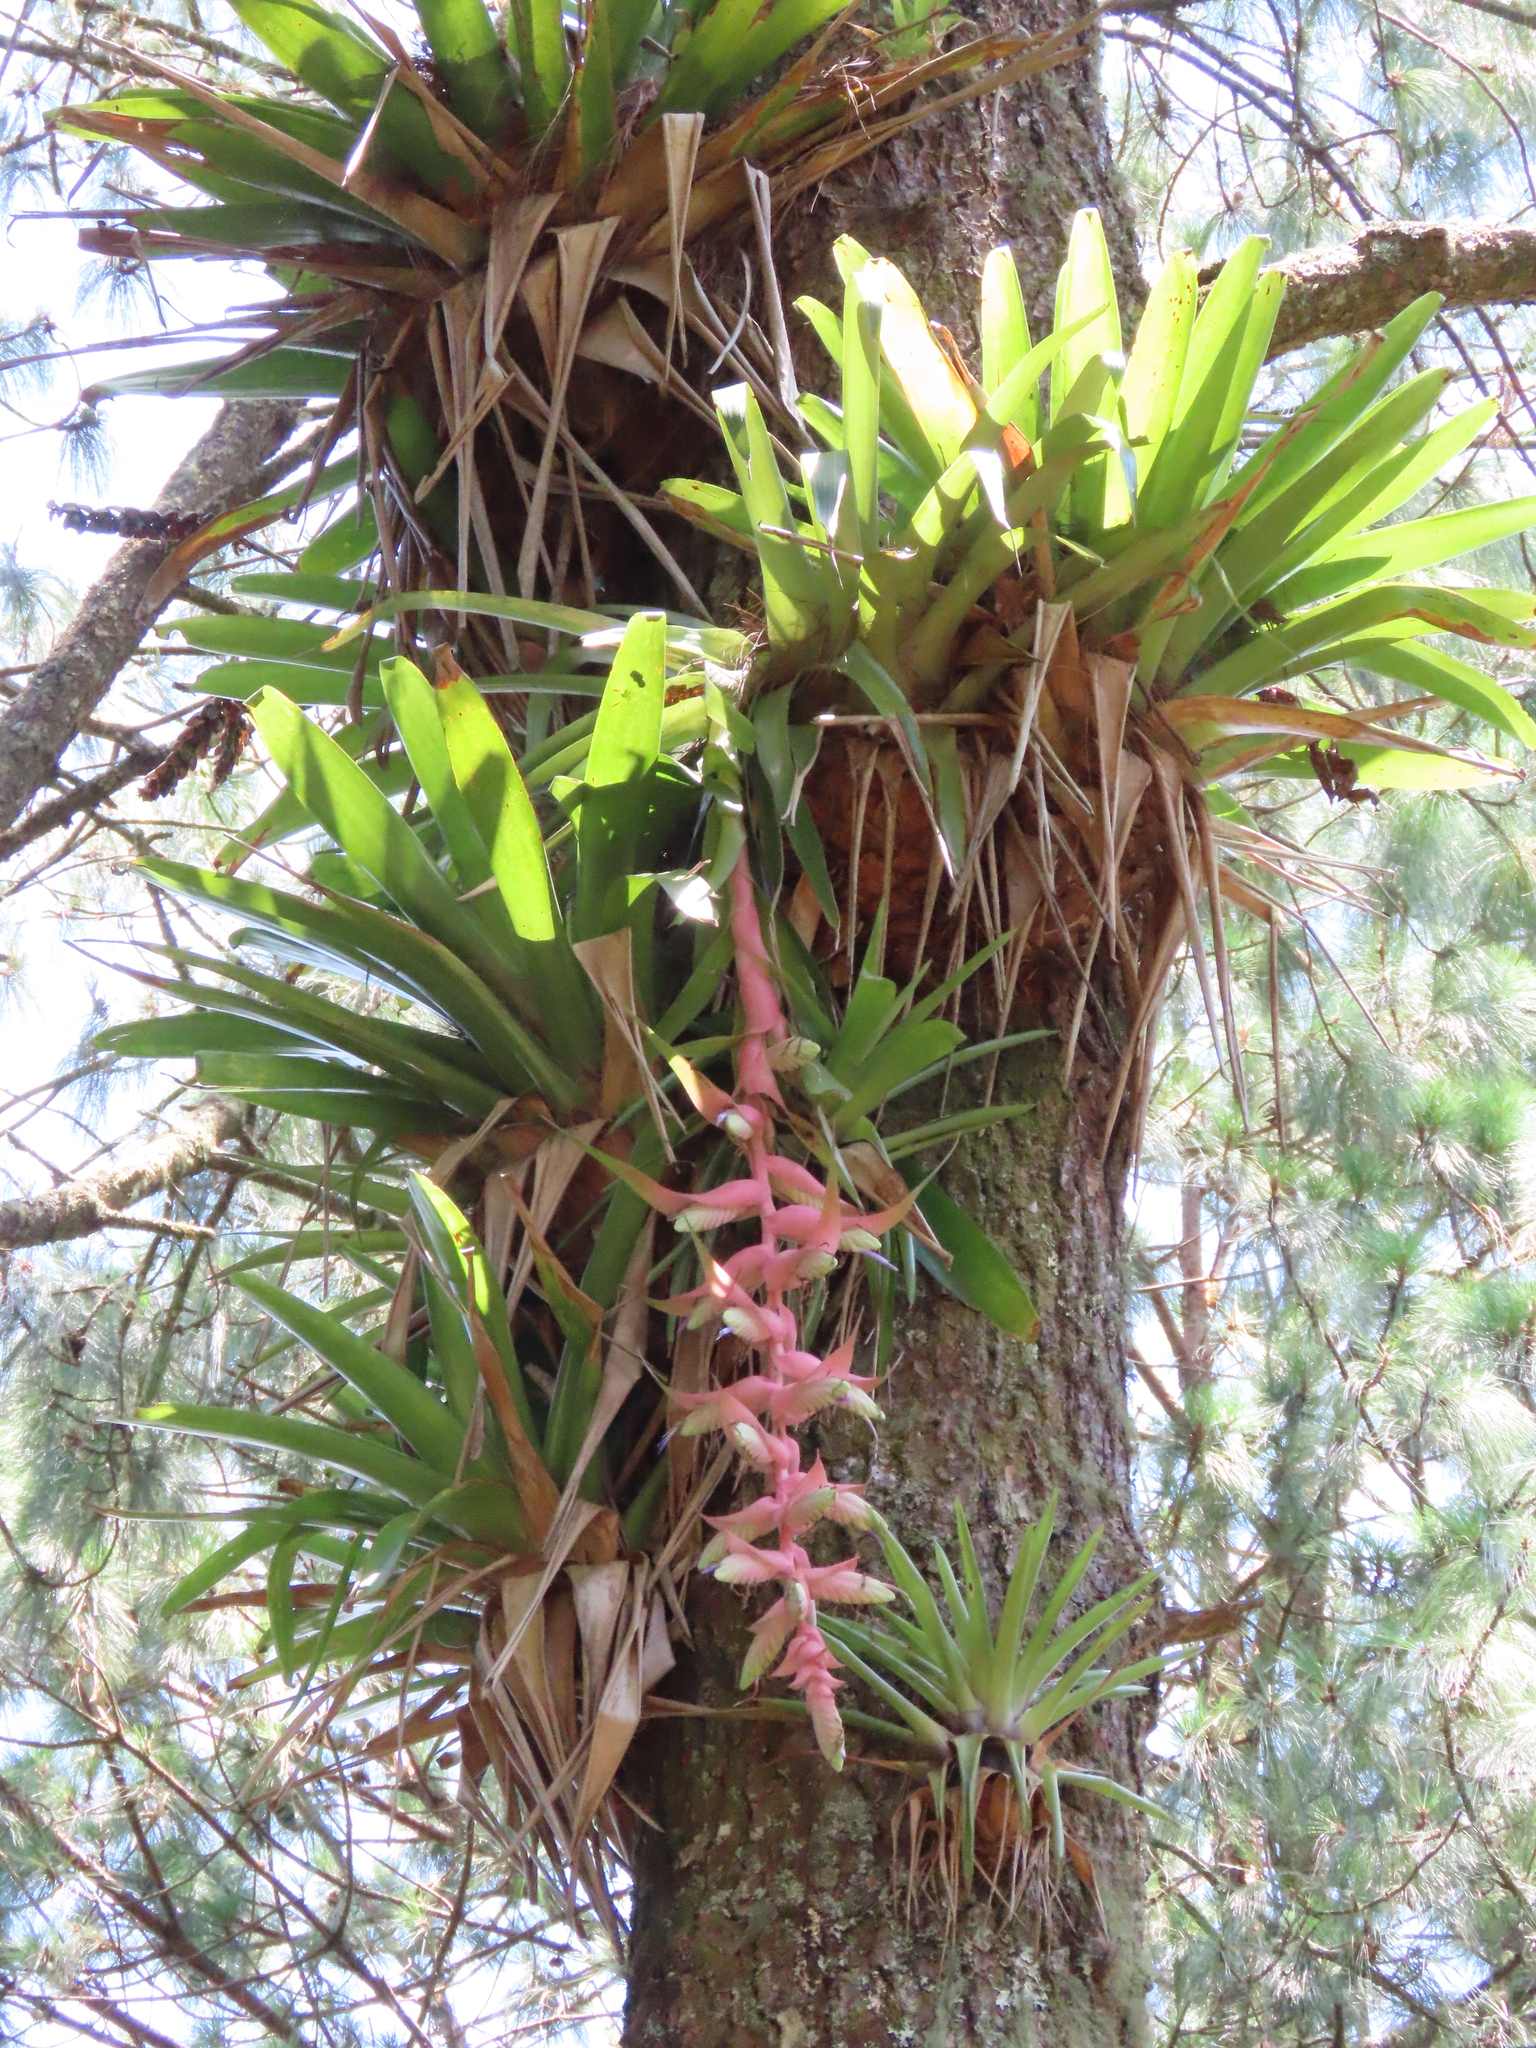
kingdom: Plantae
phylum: Tracheophyta
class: Liliopsida
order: Poales
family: Bromeliaceae
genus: Tillandsia
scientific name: Tillandsia eizii
